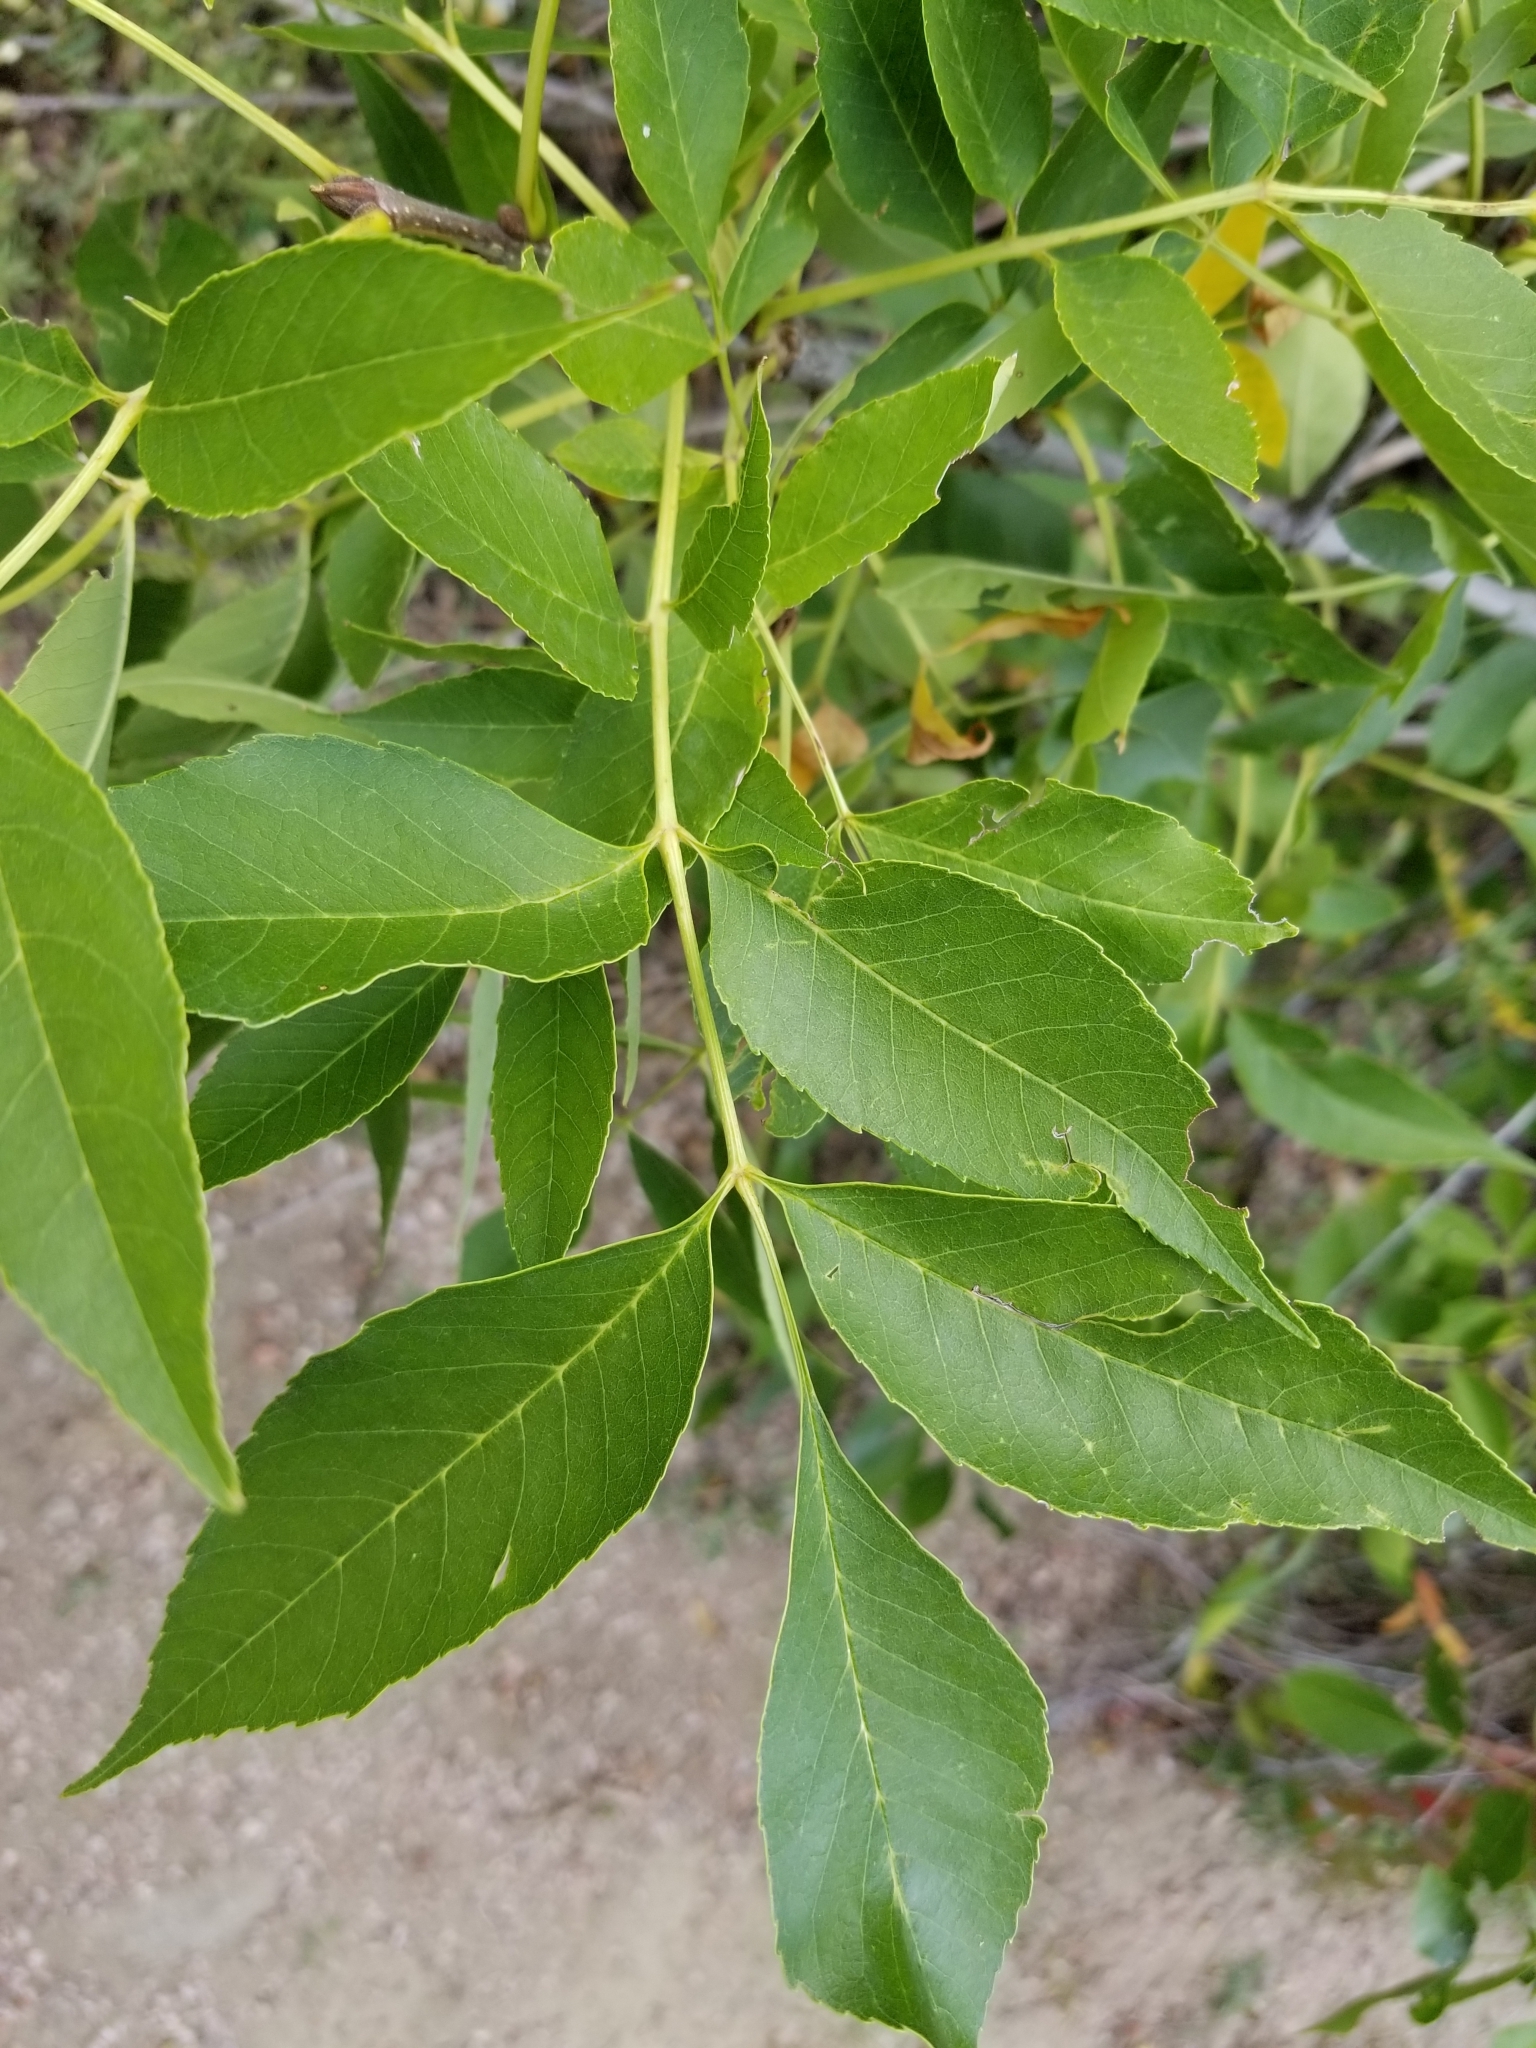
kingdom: Plantae
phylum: Tracheophyta
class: Magnoliopsida
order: Lamiales
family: Oleaceae
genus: Fraxinus
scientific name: Fraxinus pennsylvanica
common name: Green ash
